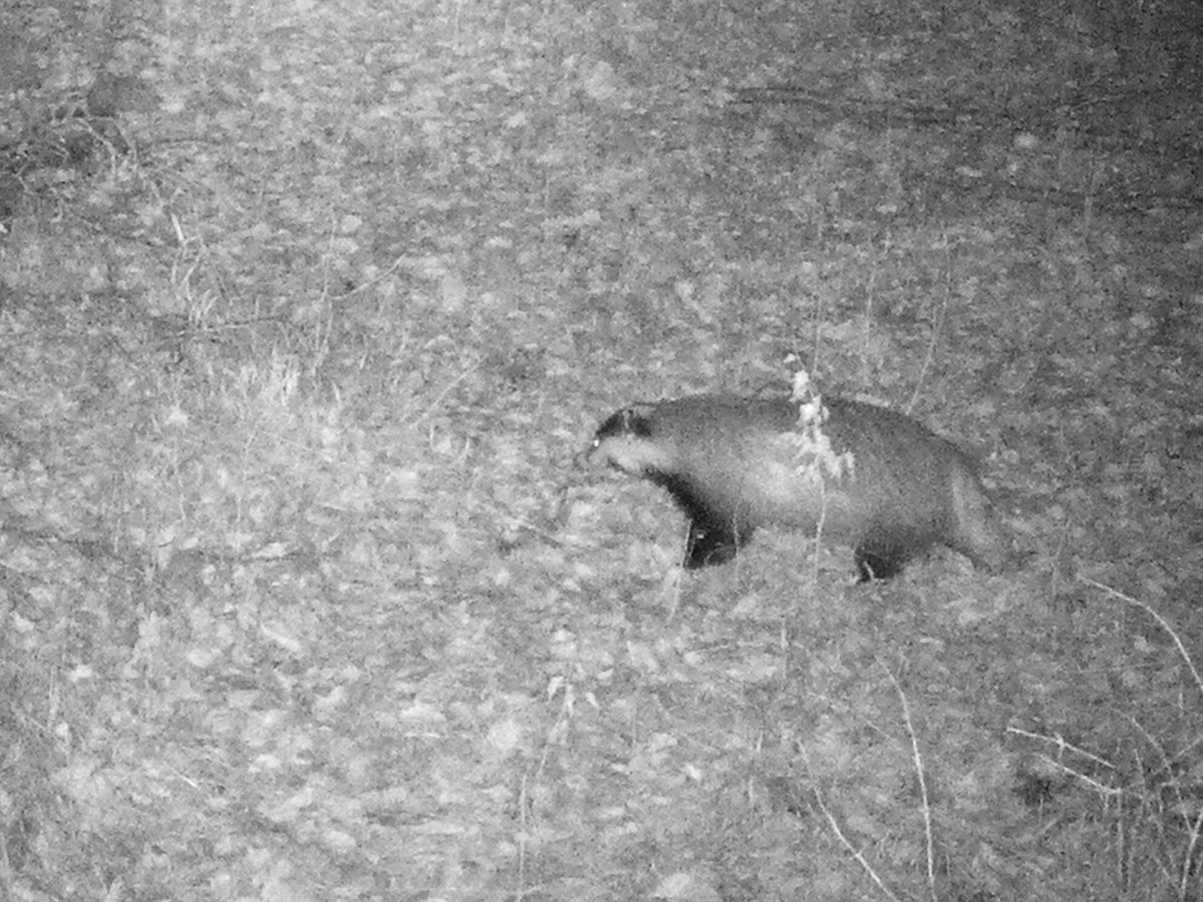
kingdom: Animalia
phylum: Chordata
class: Mammalia
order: Carnivora
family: Mustelidae
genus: Meles
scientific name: Meles meles
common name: Eurasian badger
